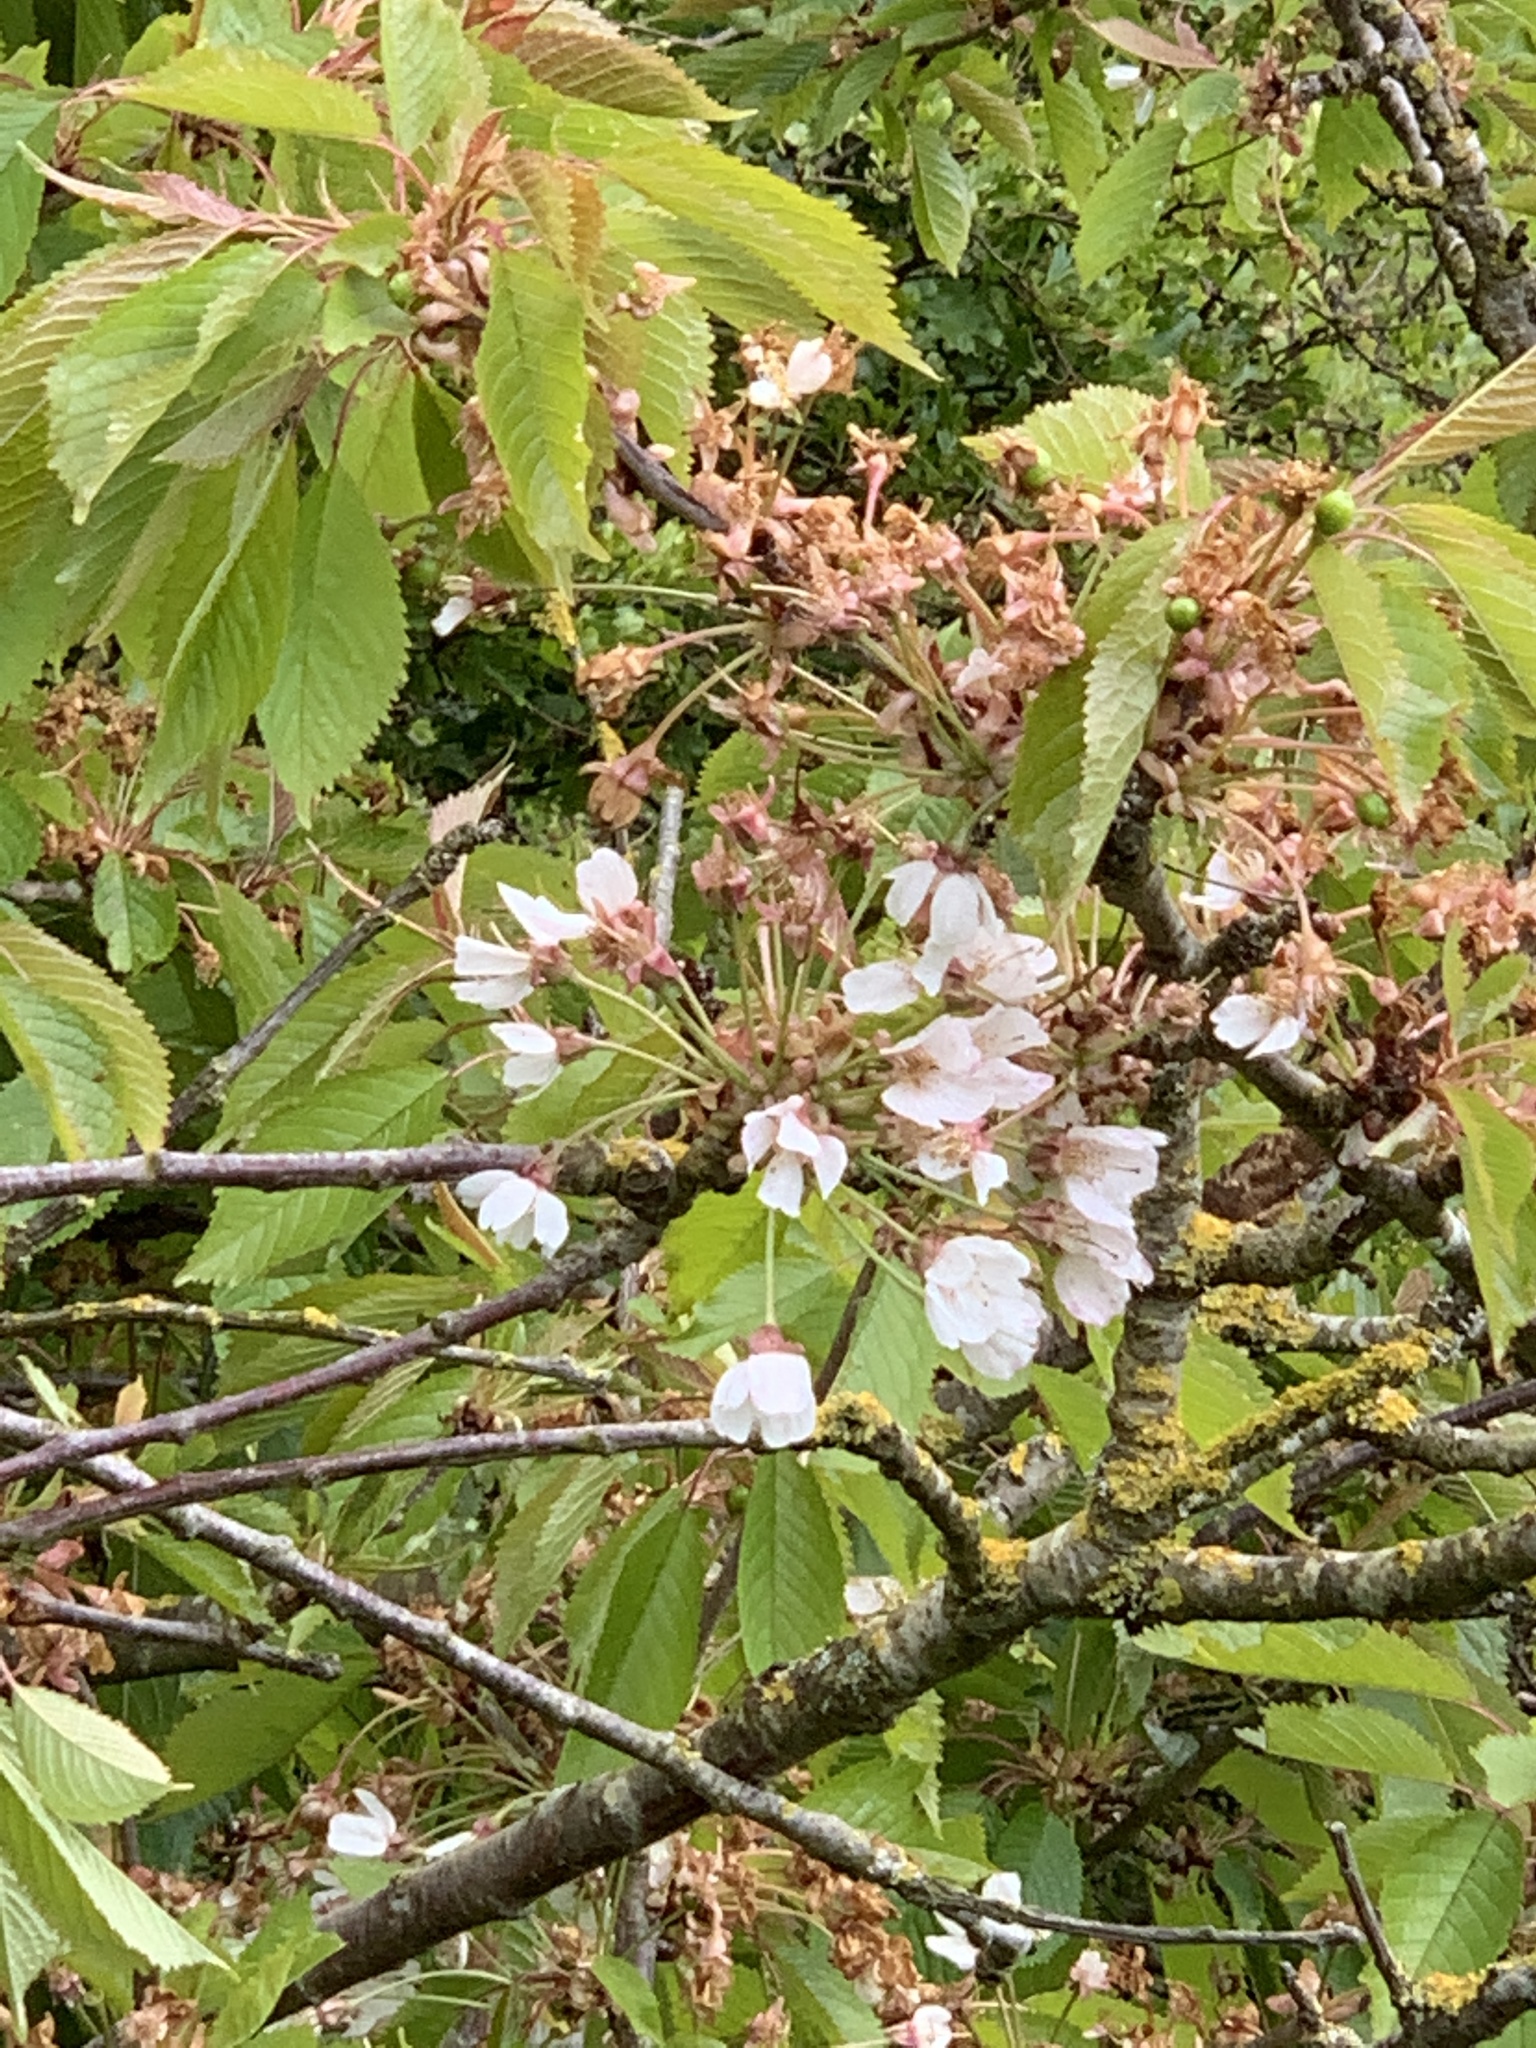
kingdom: Plantae
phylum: Tracheophyta
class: Magnoliopsida
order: Rosales
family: Rosaceae
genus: Prunus
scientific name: Prunus avium
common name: Sweet cherry
